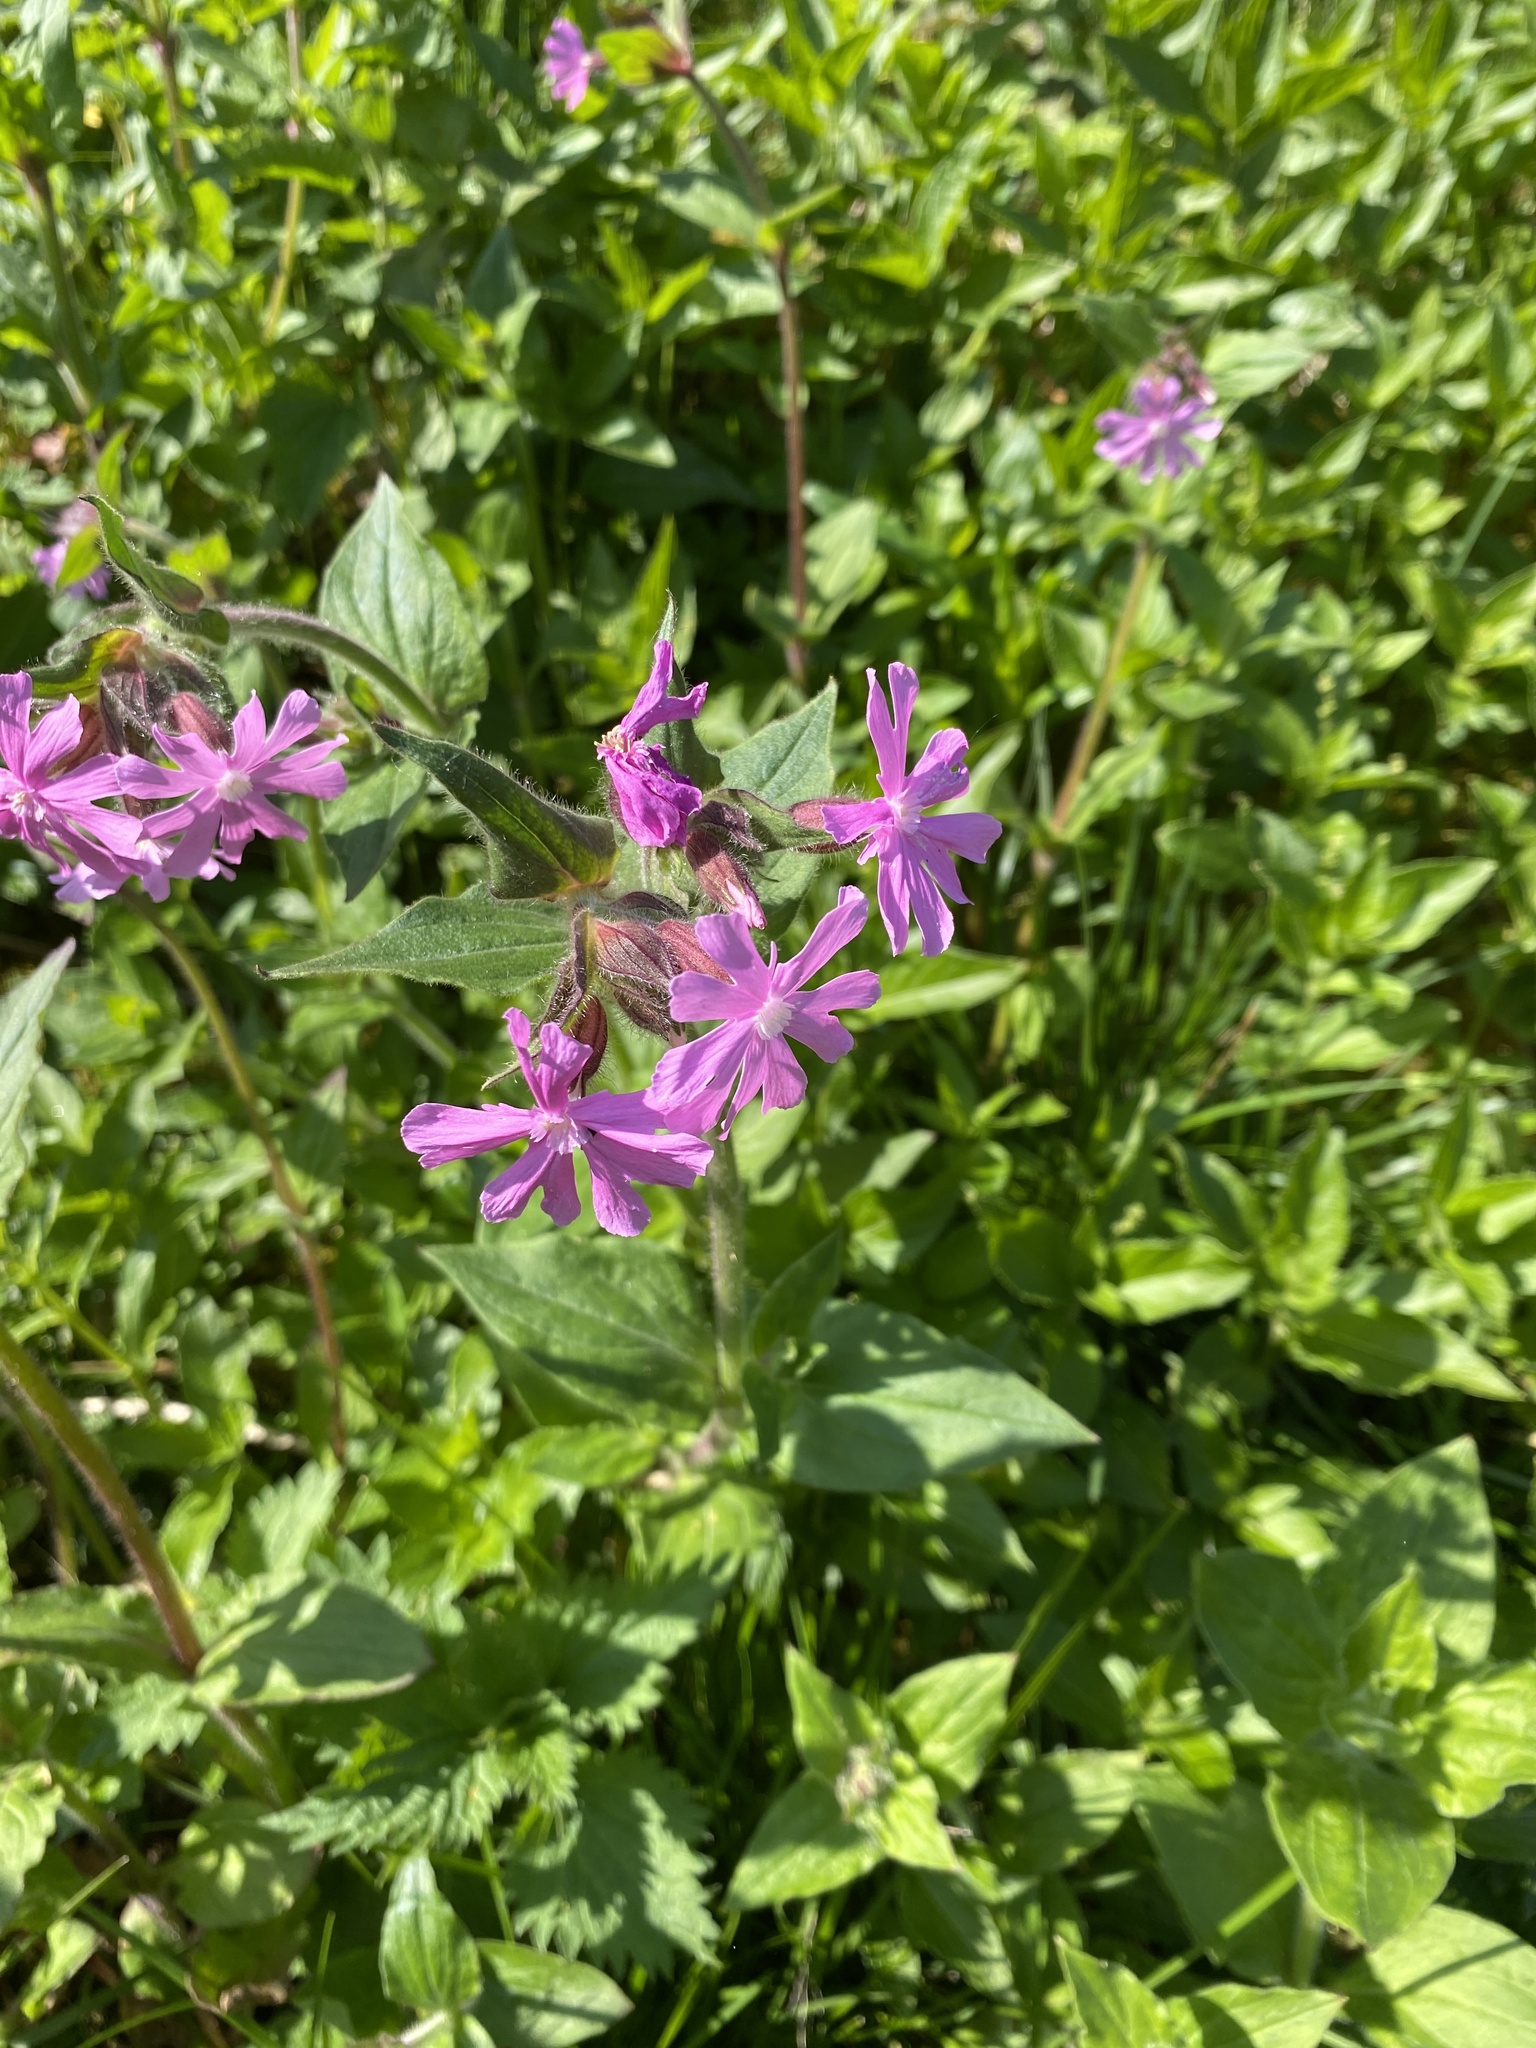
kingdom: Plantae
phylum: Tracheophyta
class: Magnoliopsida
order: Caryophyllales
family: Caryophyllaceae
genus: Silene
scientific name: Silene dioica
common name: Red campion
